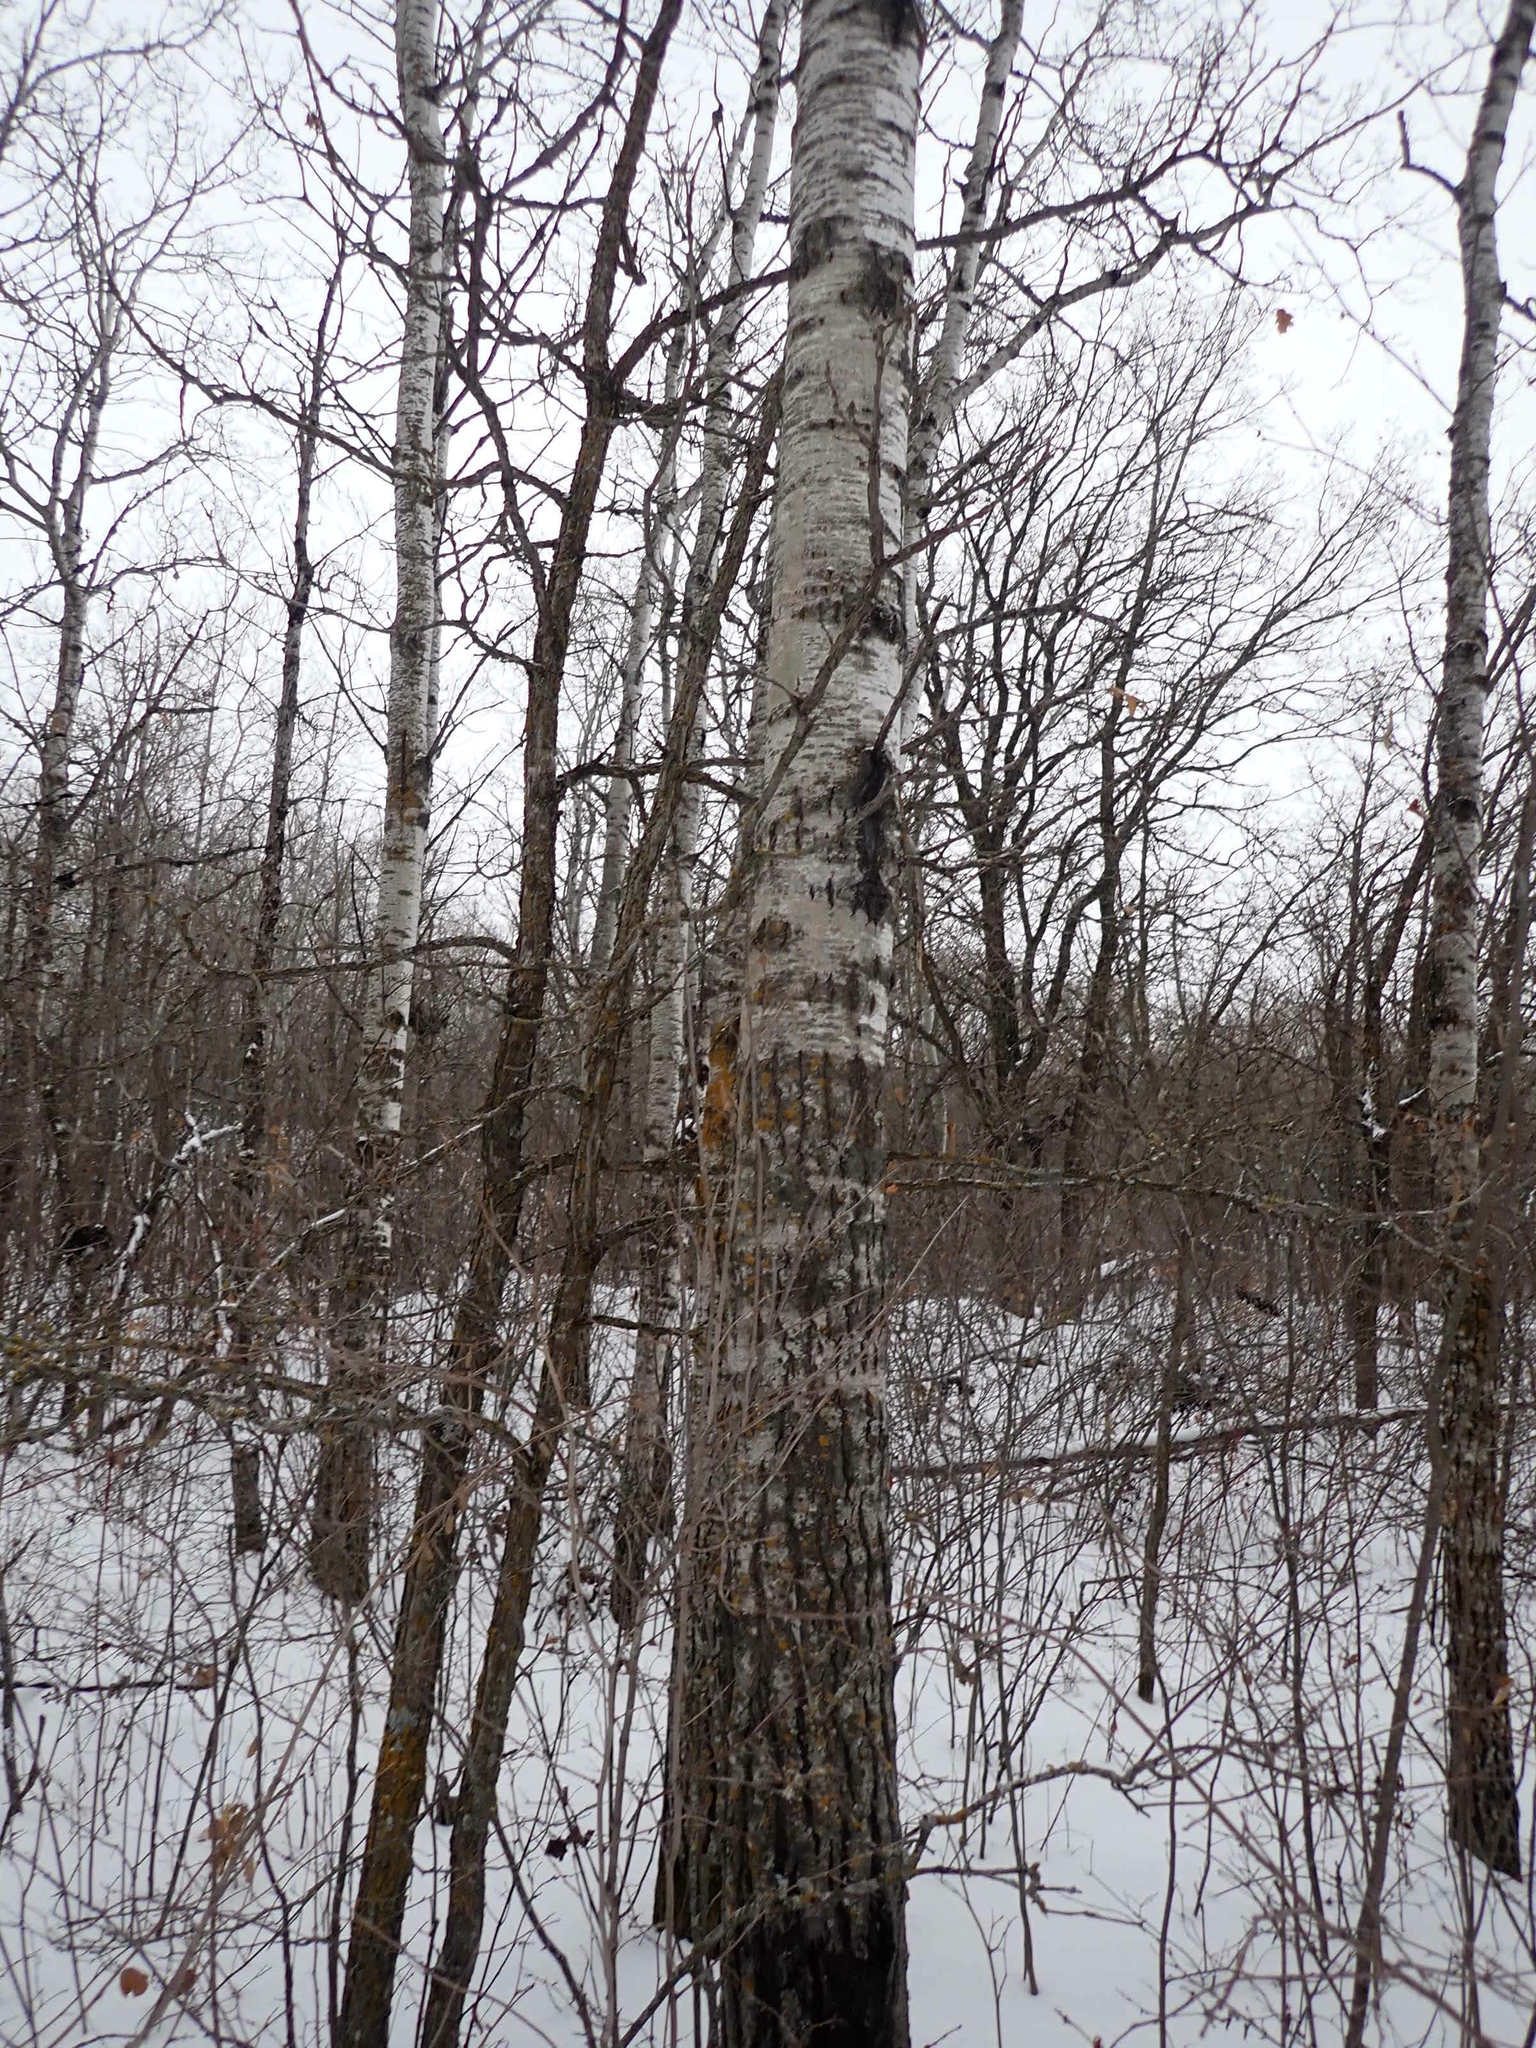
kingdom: Plantae
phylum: Tracheophyta
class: Magnoliopsida
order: Malpighiales
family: Salicaceae
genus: Populus
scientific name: Populus tremuloides
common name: Quaking aspen
